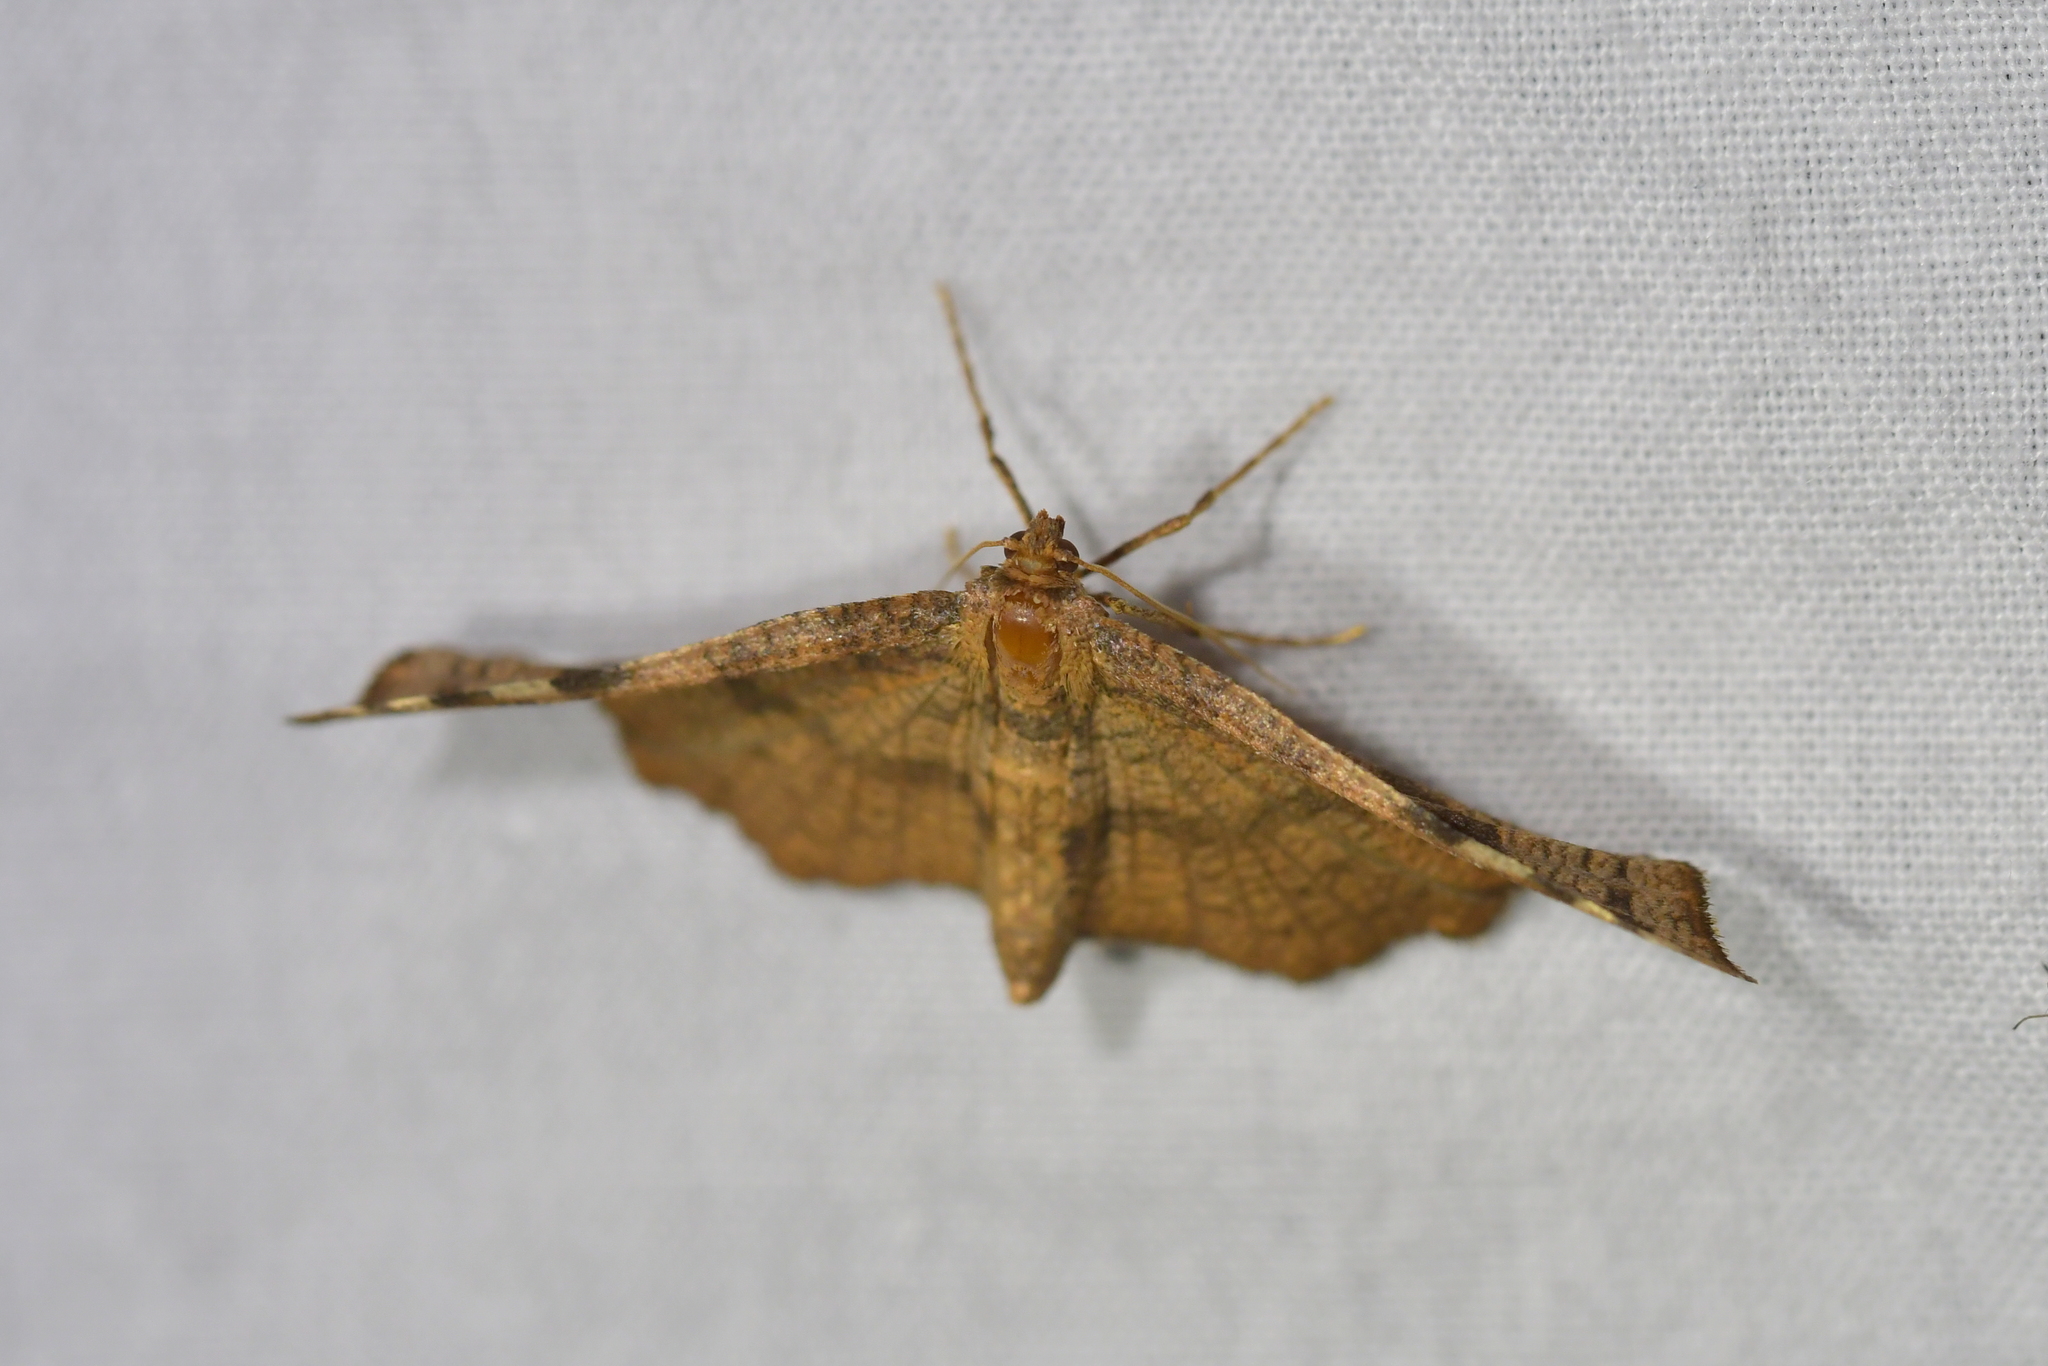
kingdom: Animalia
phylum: Arthropoda
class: Insecta
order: Lepidoptera
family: Thyrididae
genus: Morova
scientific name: Morova subfasciata
